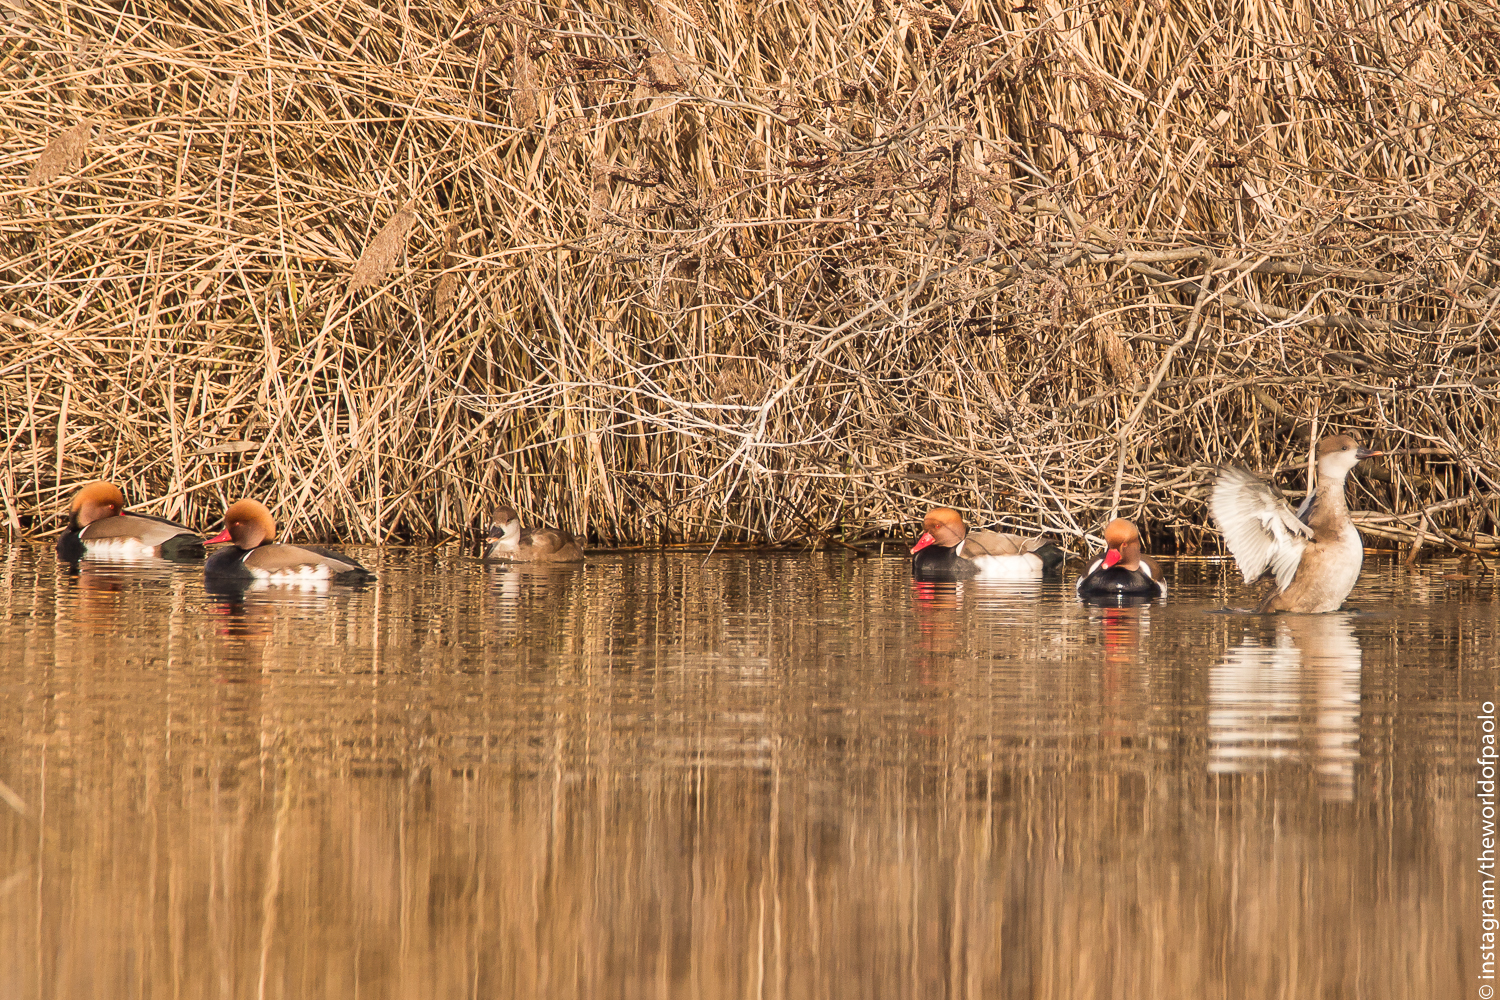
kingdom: Animalia
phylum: Chordata
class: Aves
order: Anseriformes
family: Anatidae
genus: Netta
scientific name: Netta rufina
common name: Red-crested pochard
